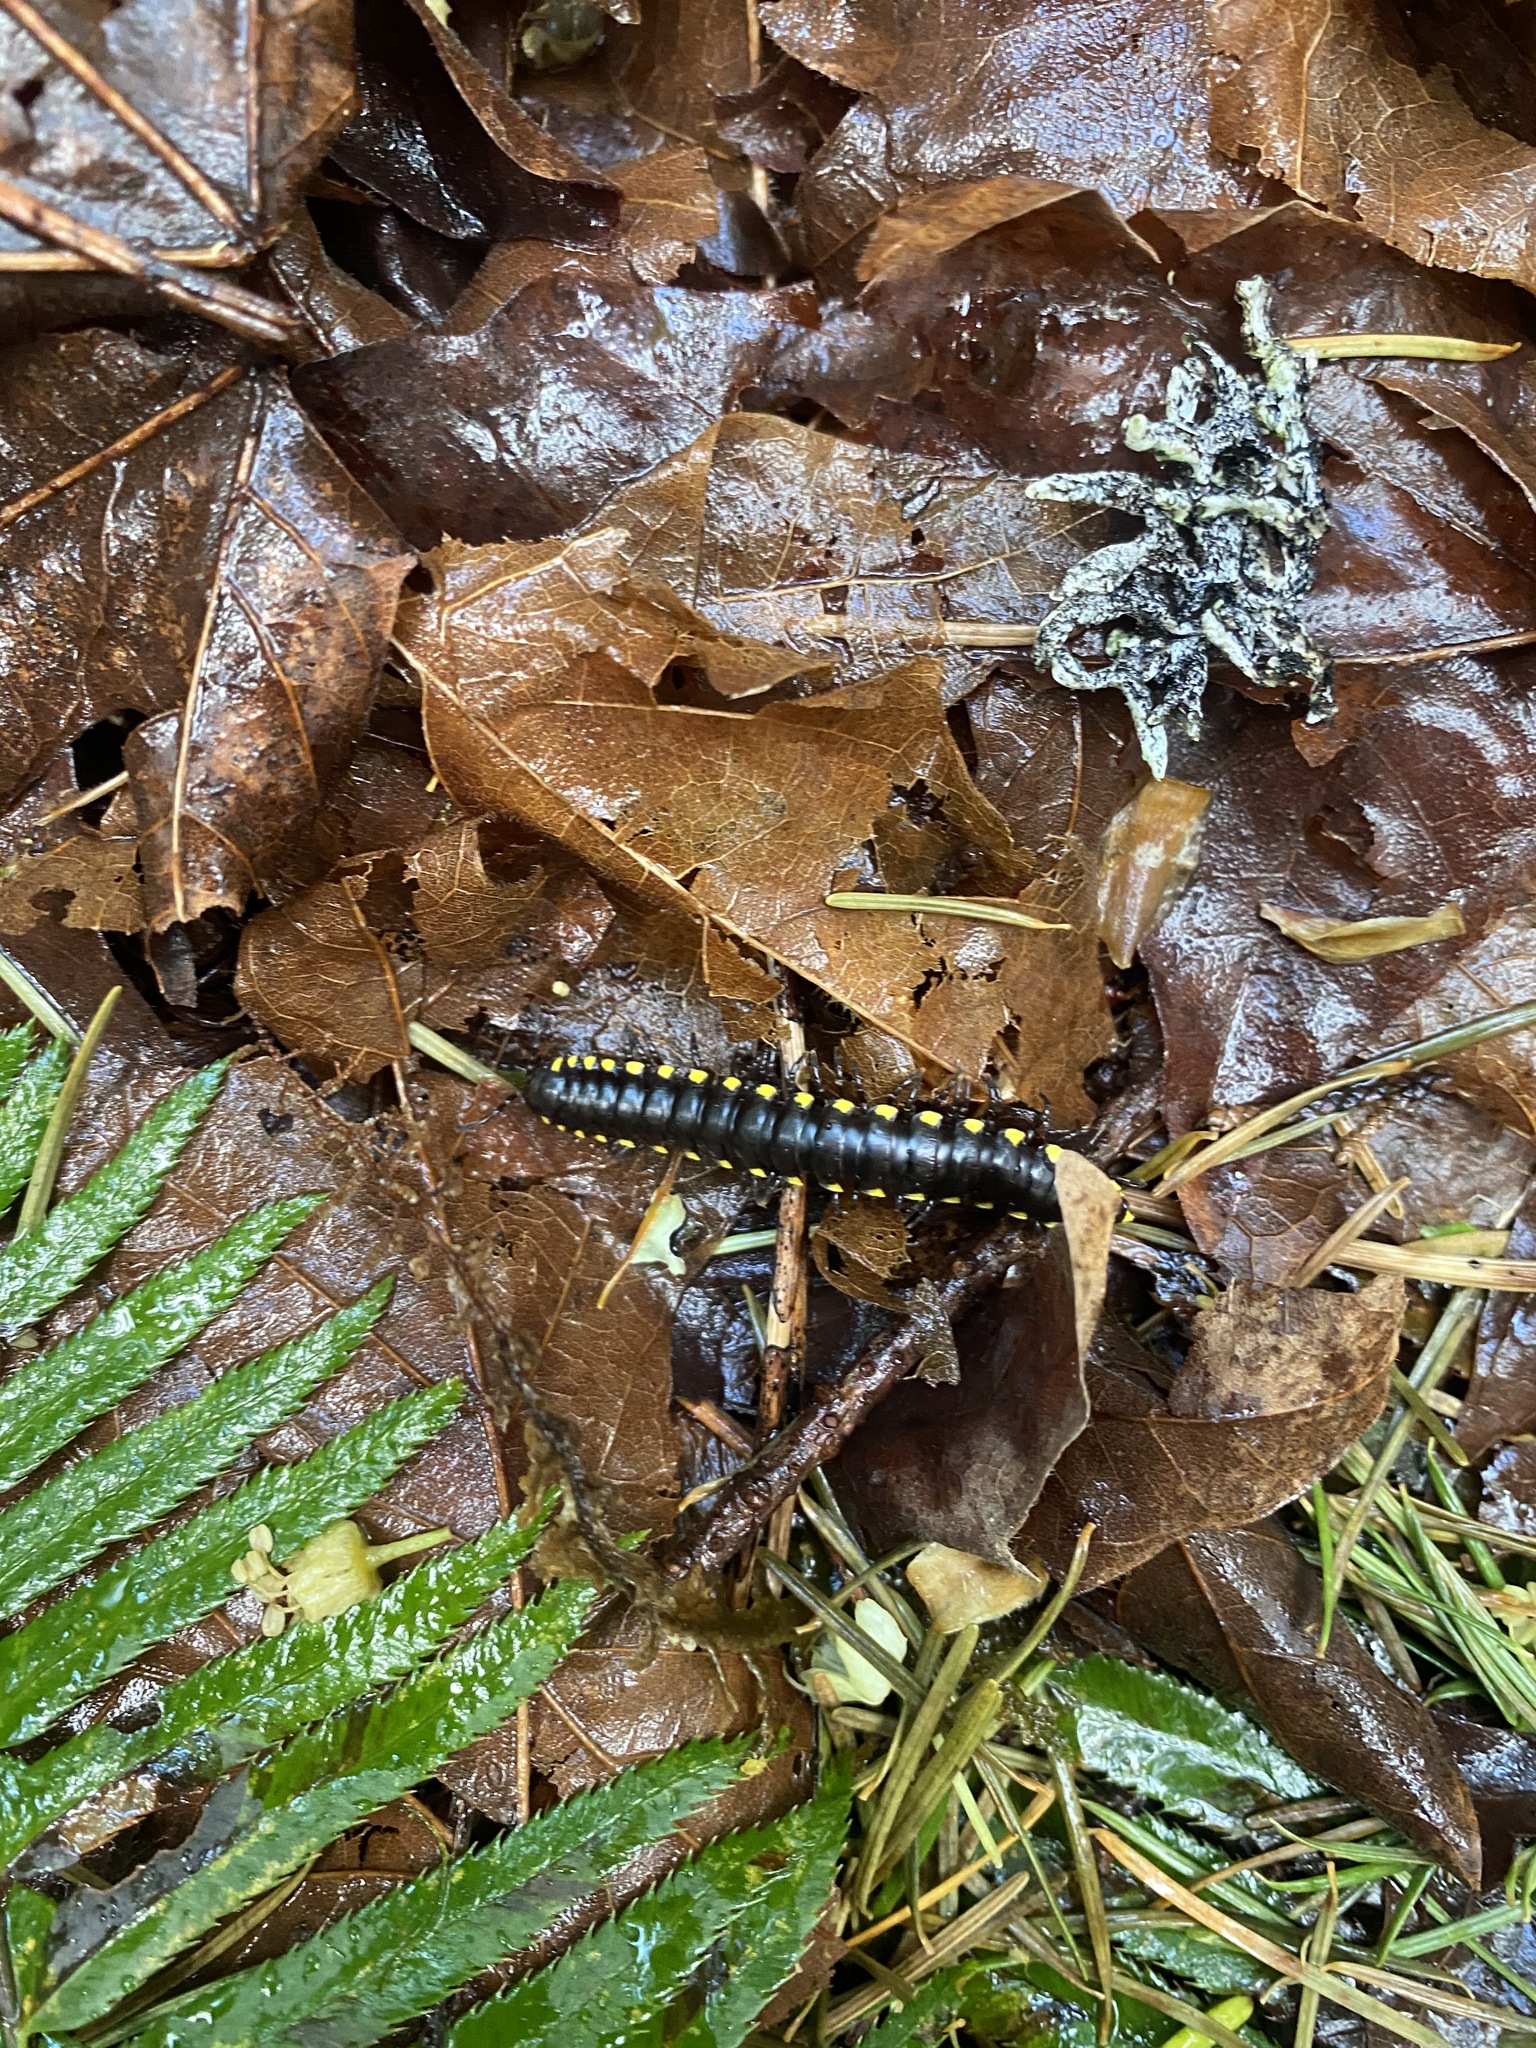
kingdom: Animalia
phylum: Arthropoda
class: Diplopoda
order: Polydesmida
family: Xystodesmidae
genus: Harpaphe
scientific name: Harpaphe haydeniana
